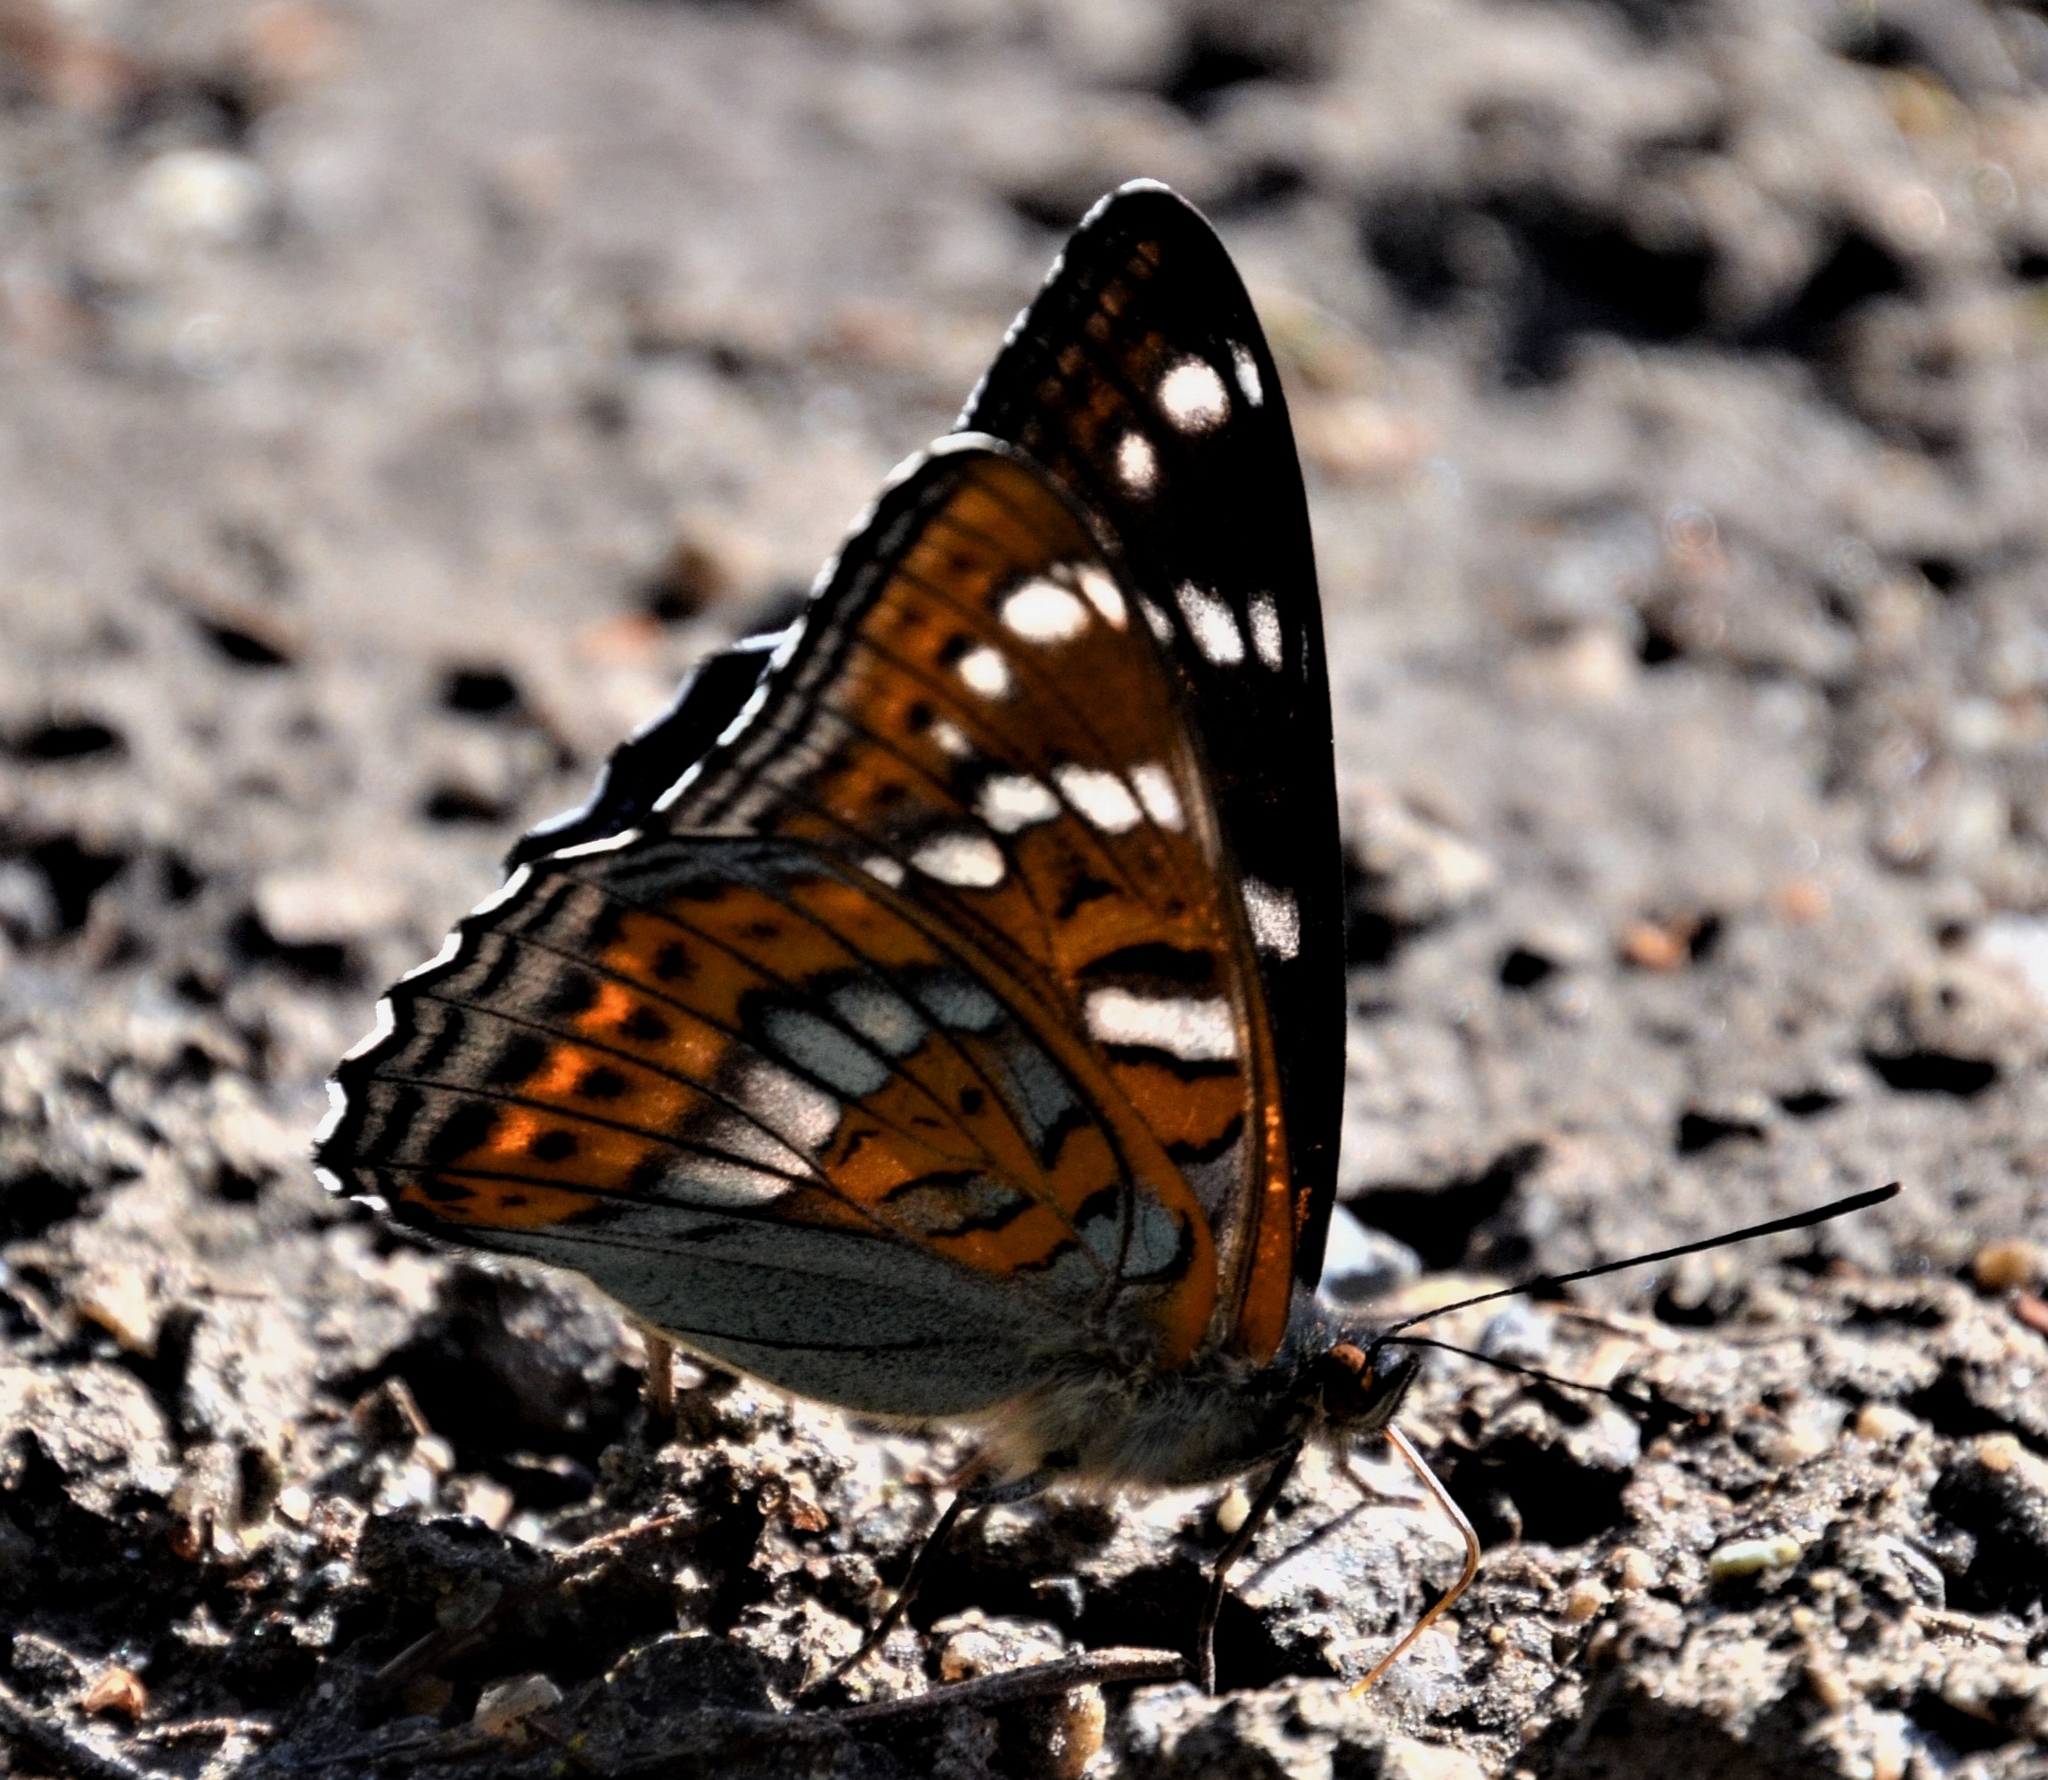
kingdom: Animalia
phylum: Arthropoda
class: Insecta
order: Lepidoptera
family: Nymphalidae
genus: Limenitis
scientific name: Limenitis populi
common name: Poplar admiral
